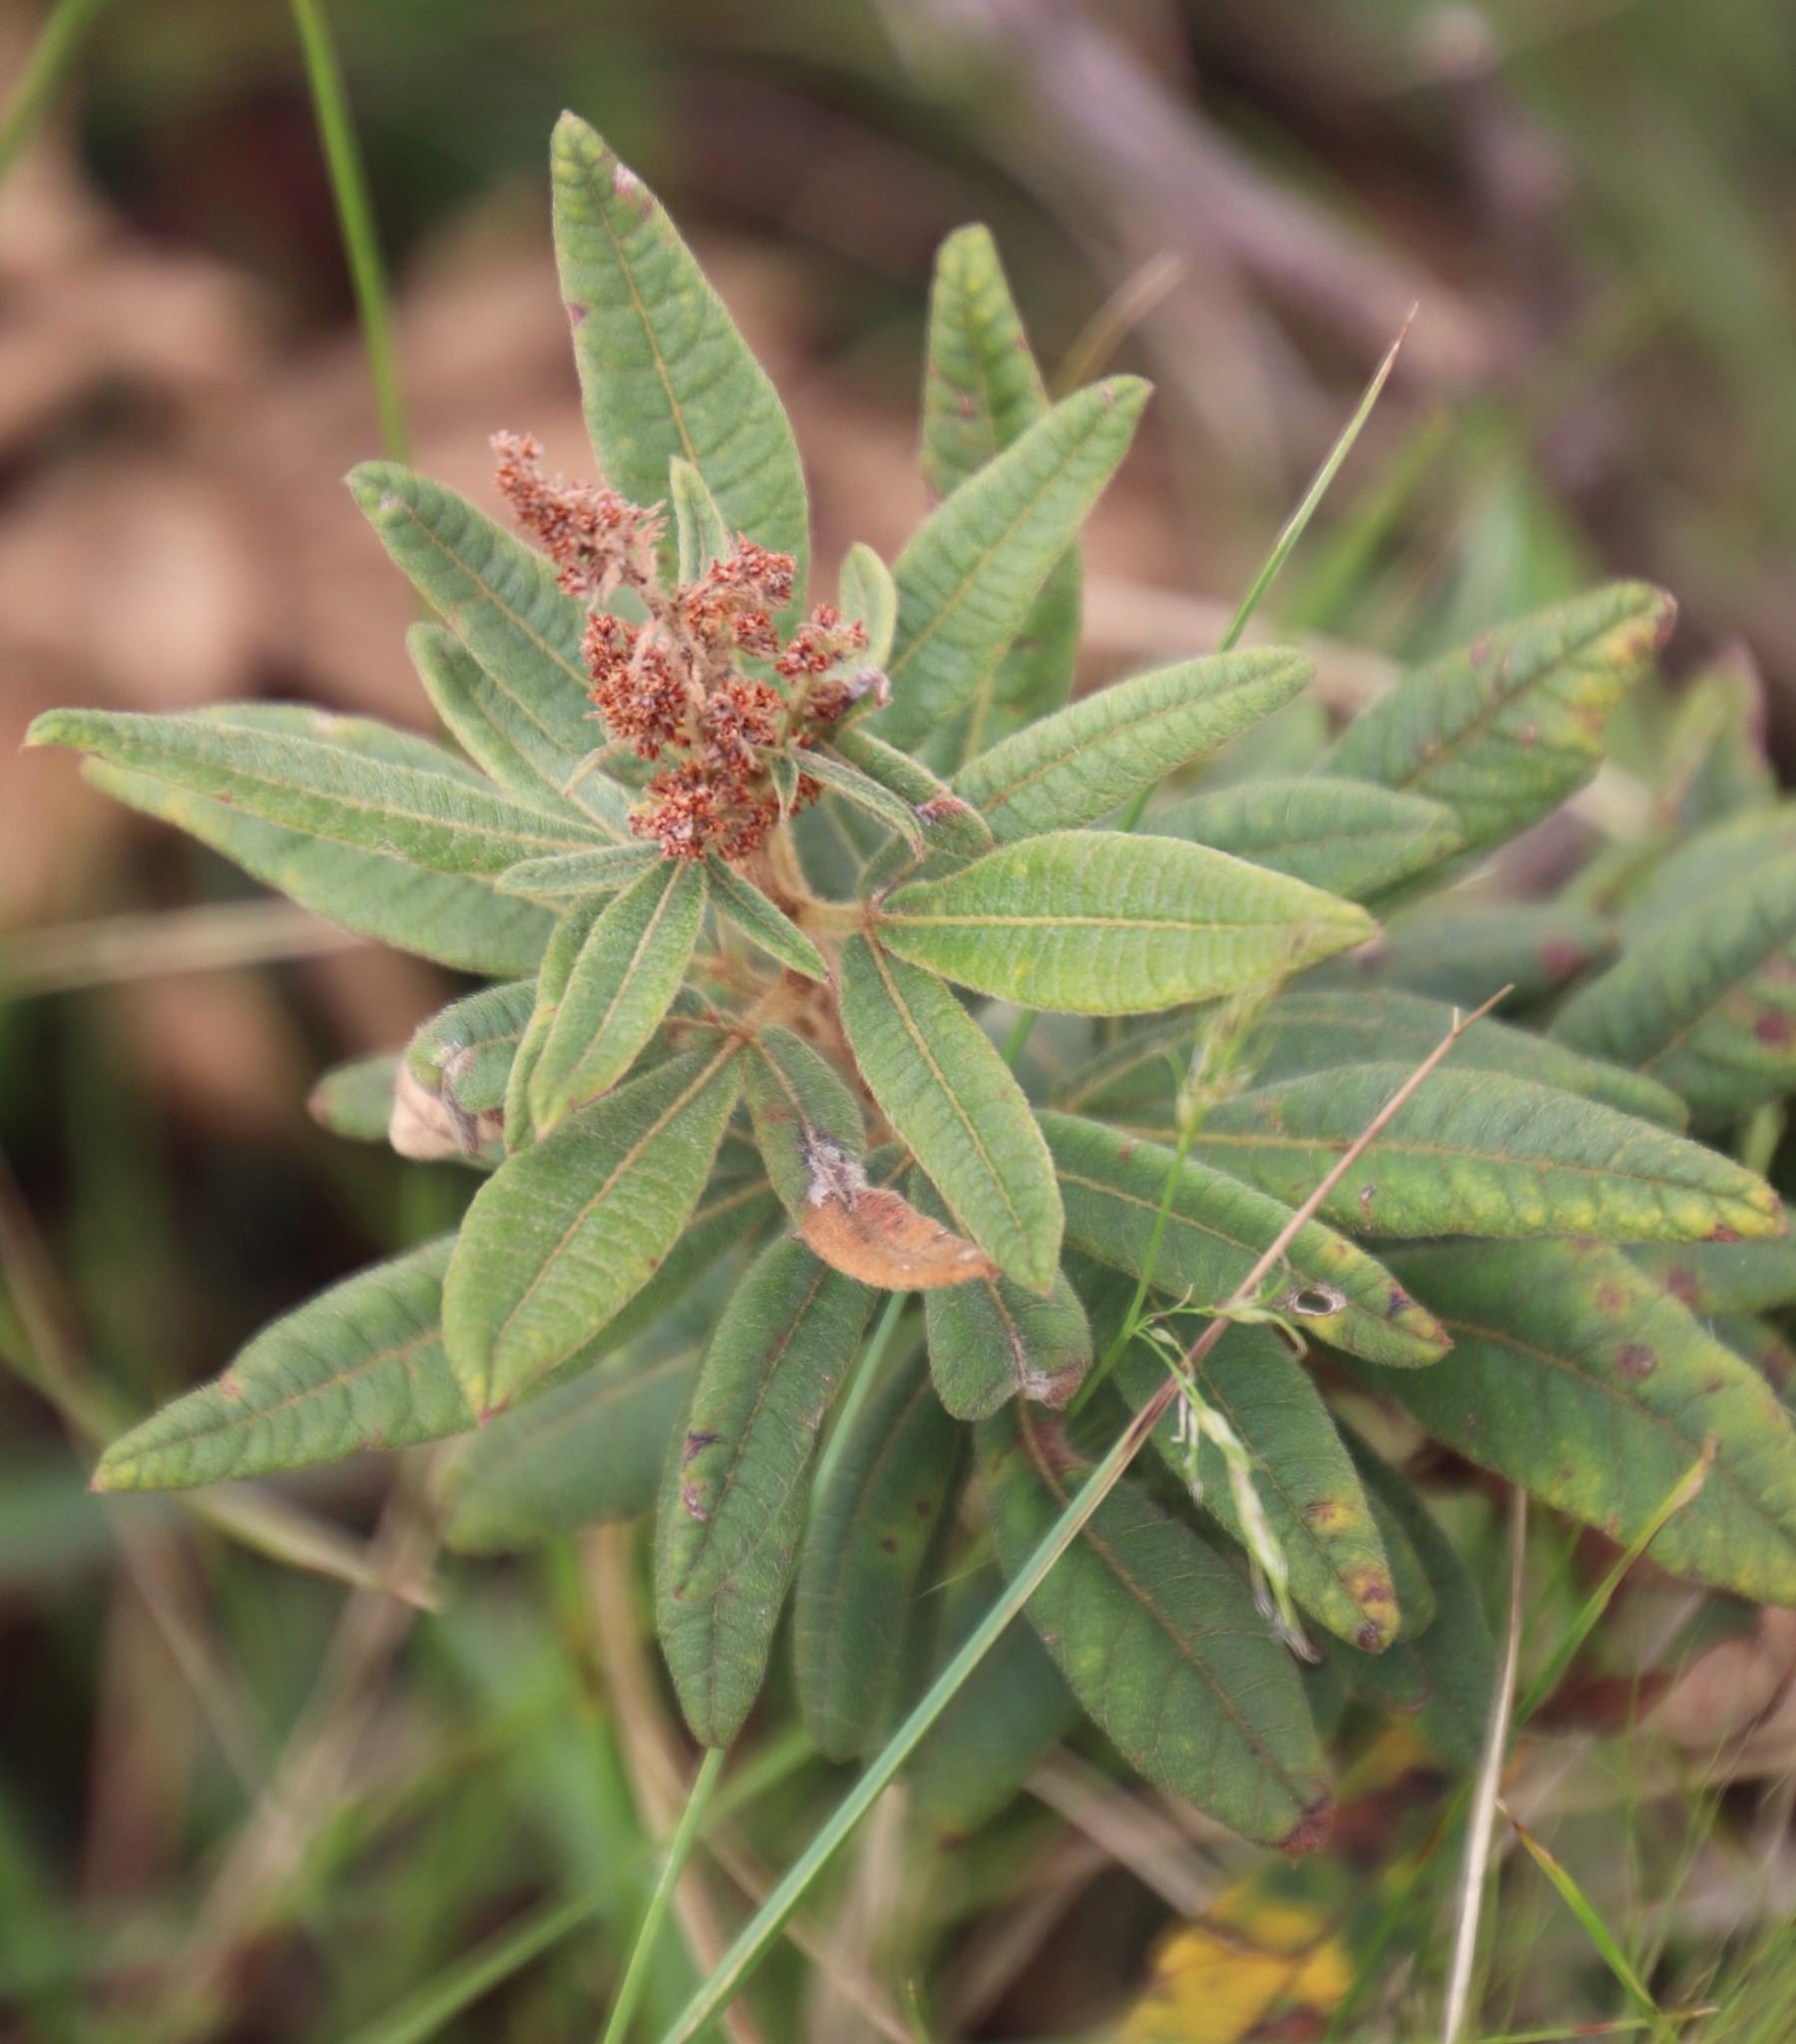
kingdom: Plantae
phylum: Tracheophyta
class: Magnoliopsida
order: Sapindales
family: Anacardiaceae
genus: Searsia
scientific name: Searsia discolor
